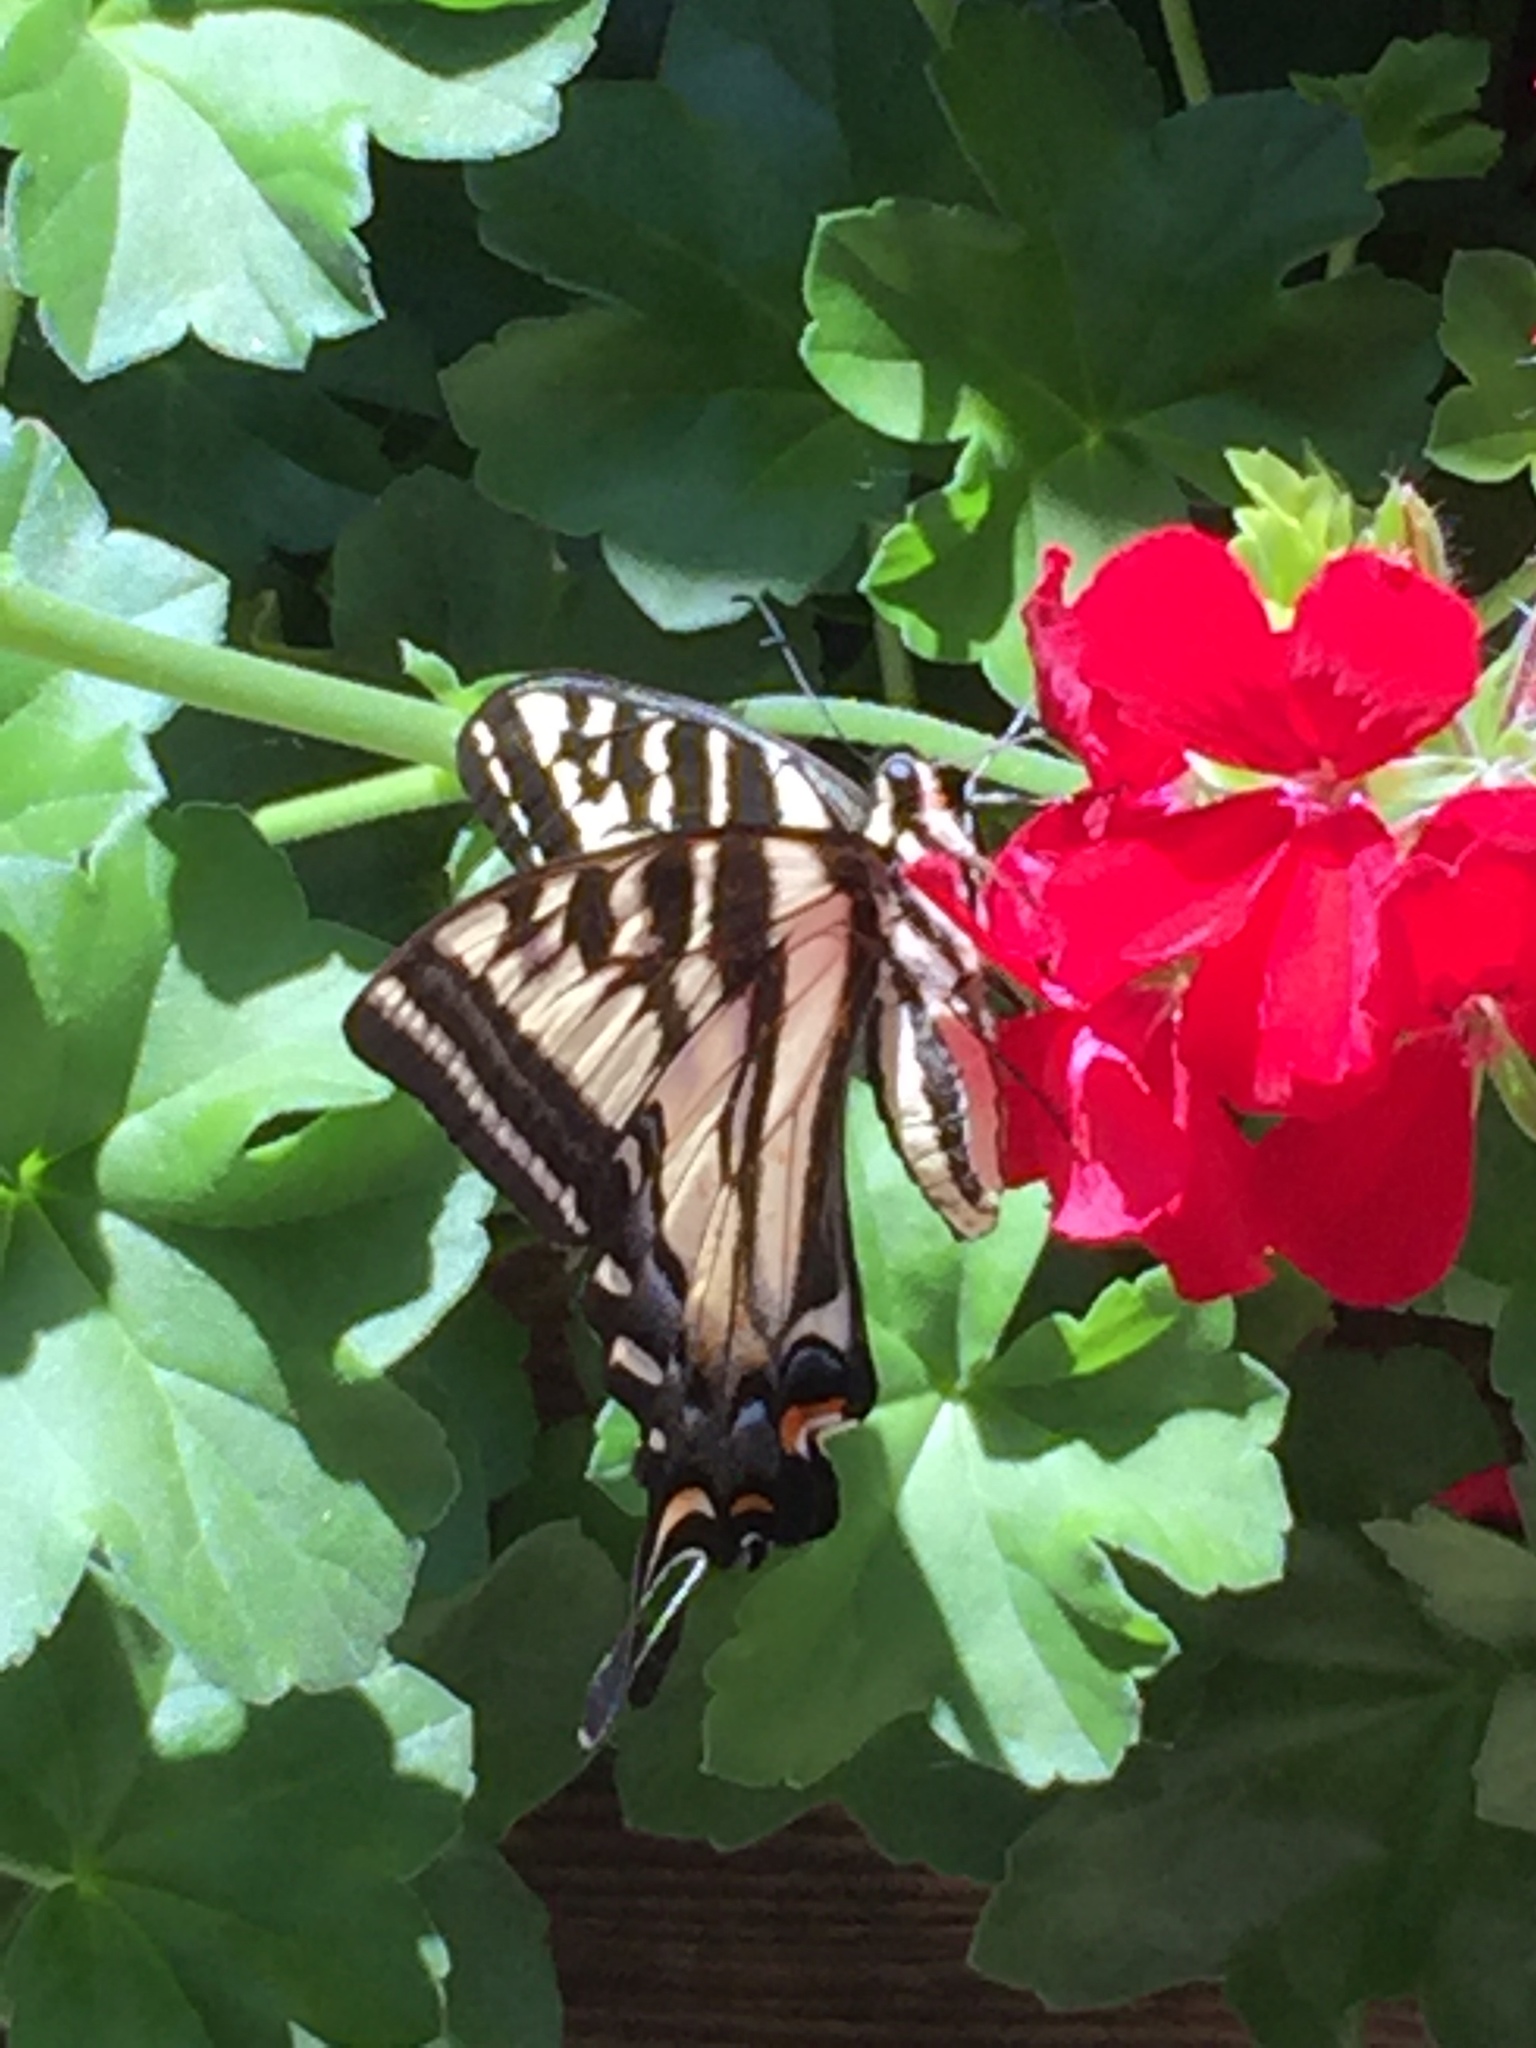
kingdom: Animalia
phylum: Arthropoda
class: Insecta
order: Lepidoptera
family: Papilionidae
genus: Papilio
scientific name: Papilio eurymedon
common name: Pale tiger swallowtail
